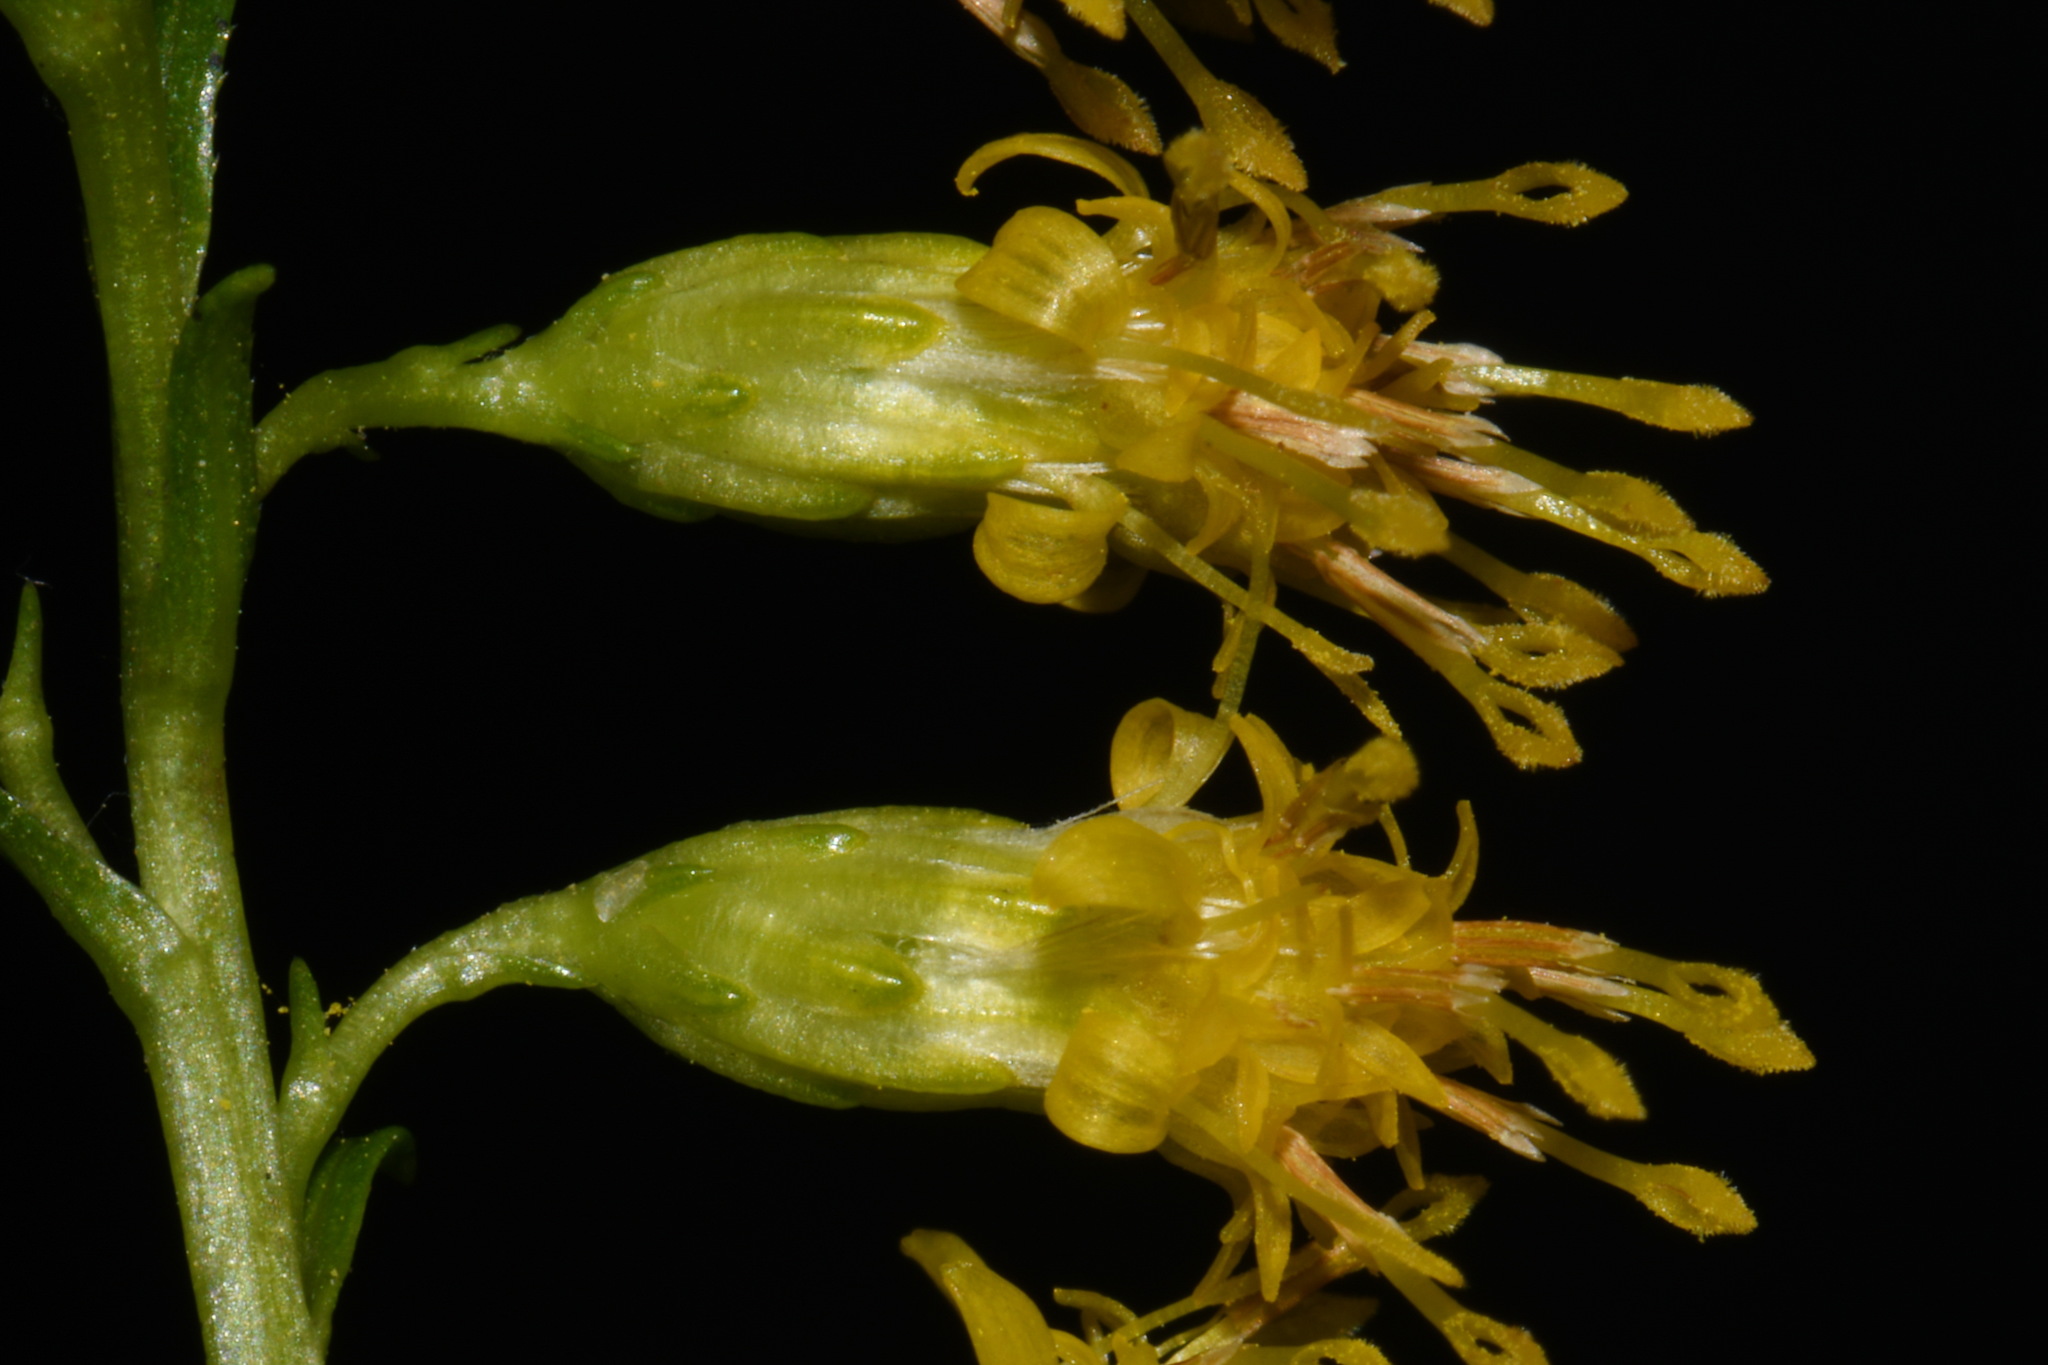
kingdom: Plantae
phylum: Tracheophyta
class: Magnoliopsida
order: Asterales
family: Asteraceae
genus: Solidago
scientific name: Solidago austrina
